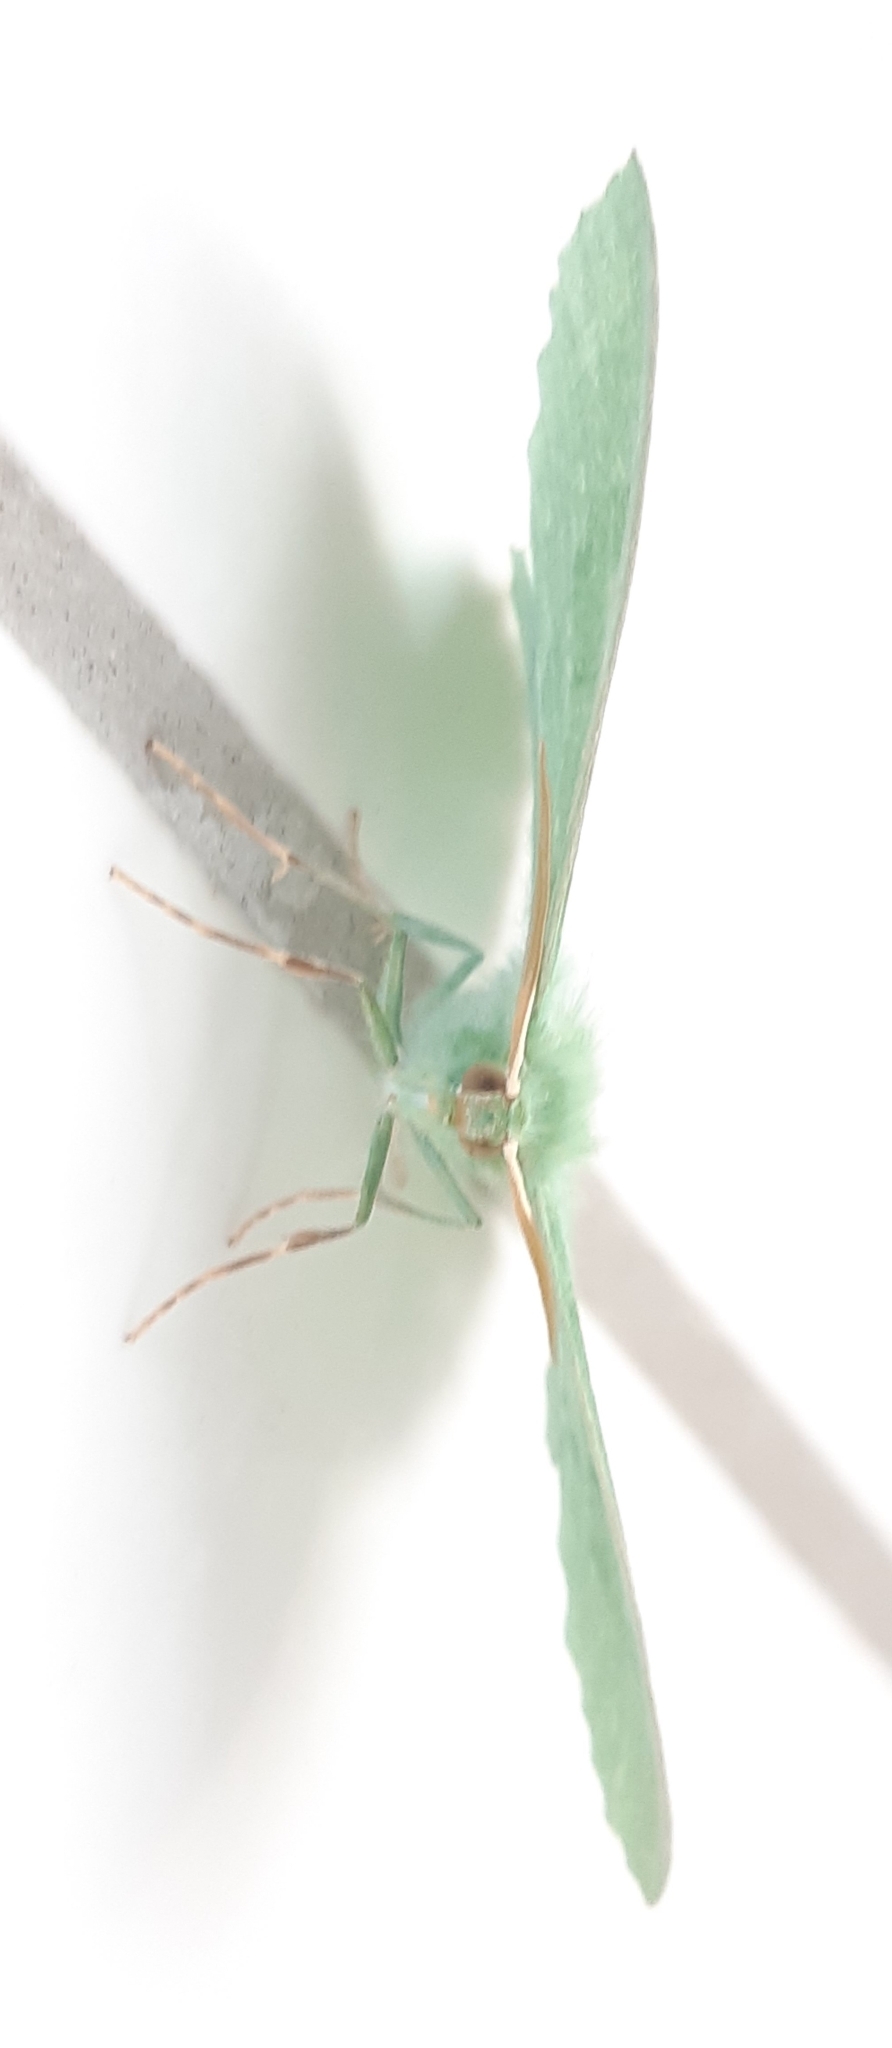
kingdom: Animalia
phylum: Arthropoda
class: Insecta
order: Lepidoptera
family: Geometridae
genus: Geometra
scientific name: Geometra papilionaria
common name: Large emerald
